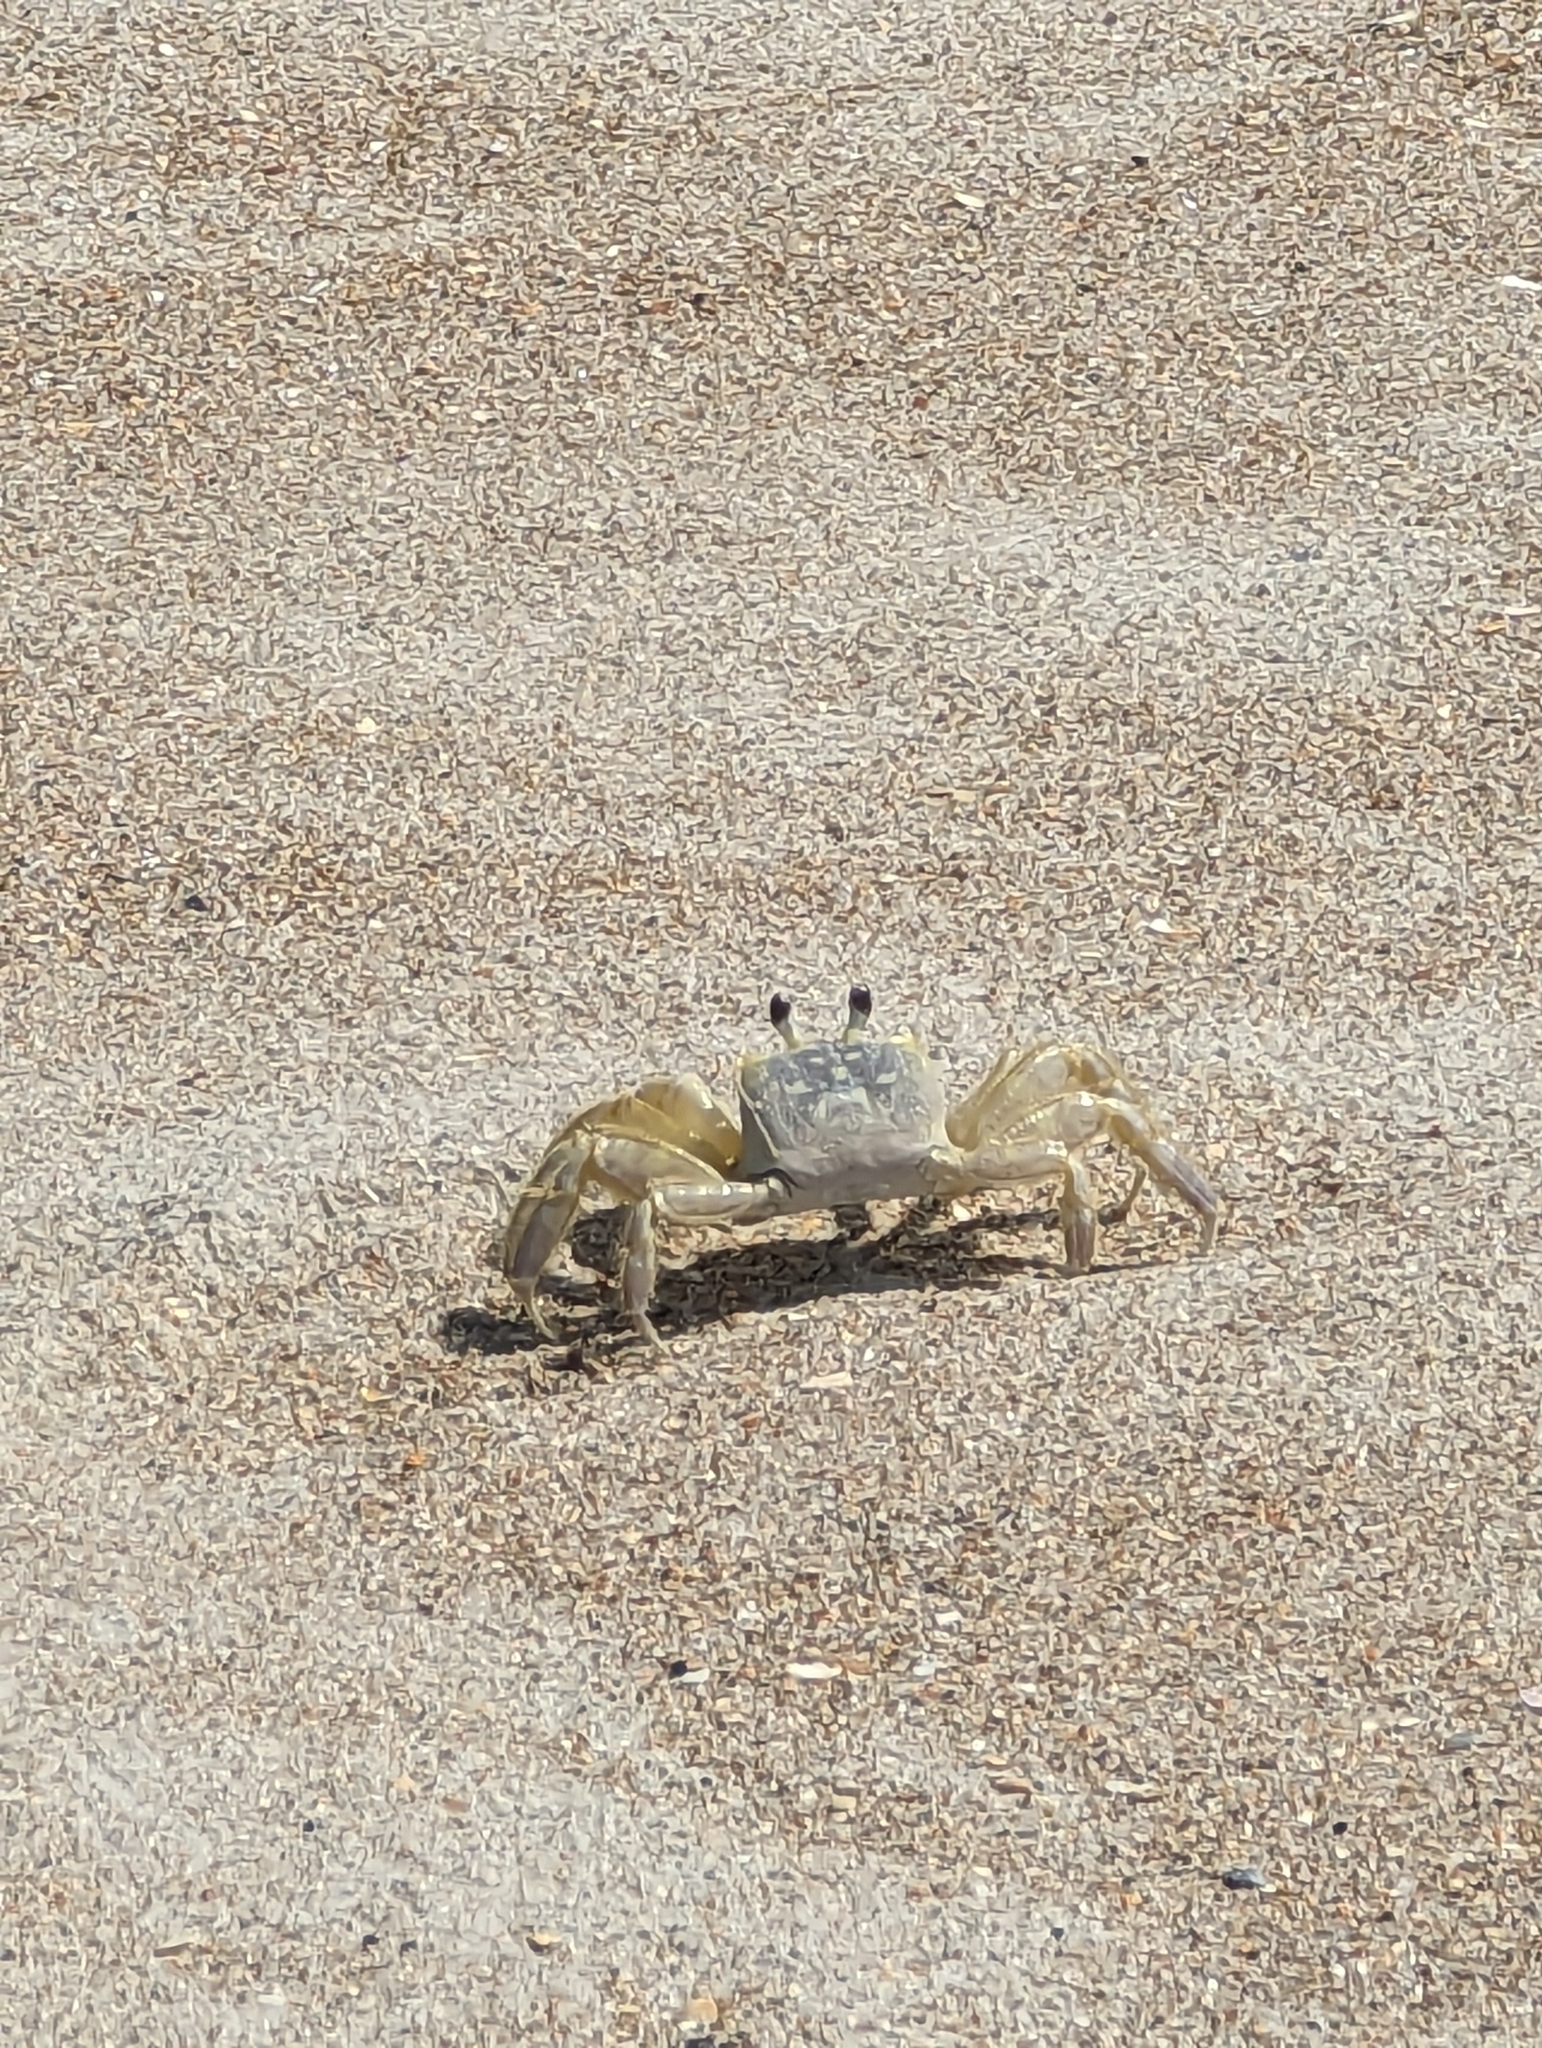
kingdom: Animalia
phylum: Arthropoda
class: Malacostraca
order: Decapoda
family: Ocypodidae
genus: Ocypode
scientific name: Ocypode quadrata
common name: Ghost crab
